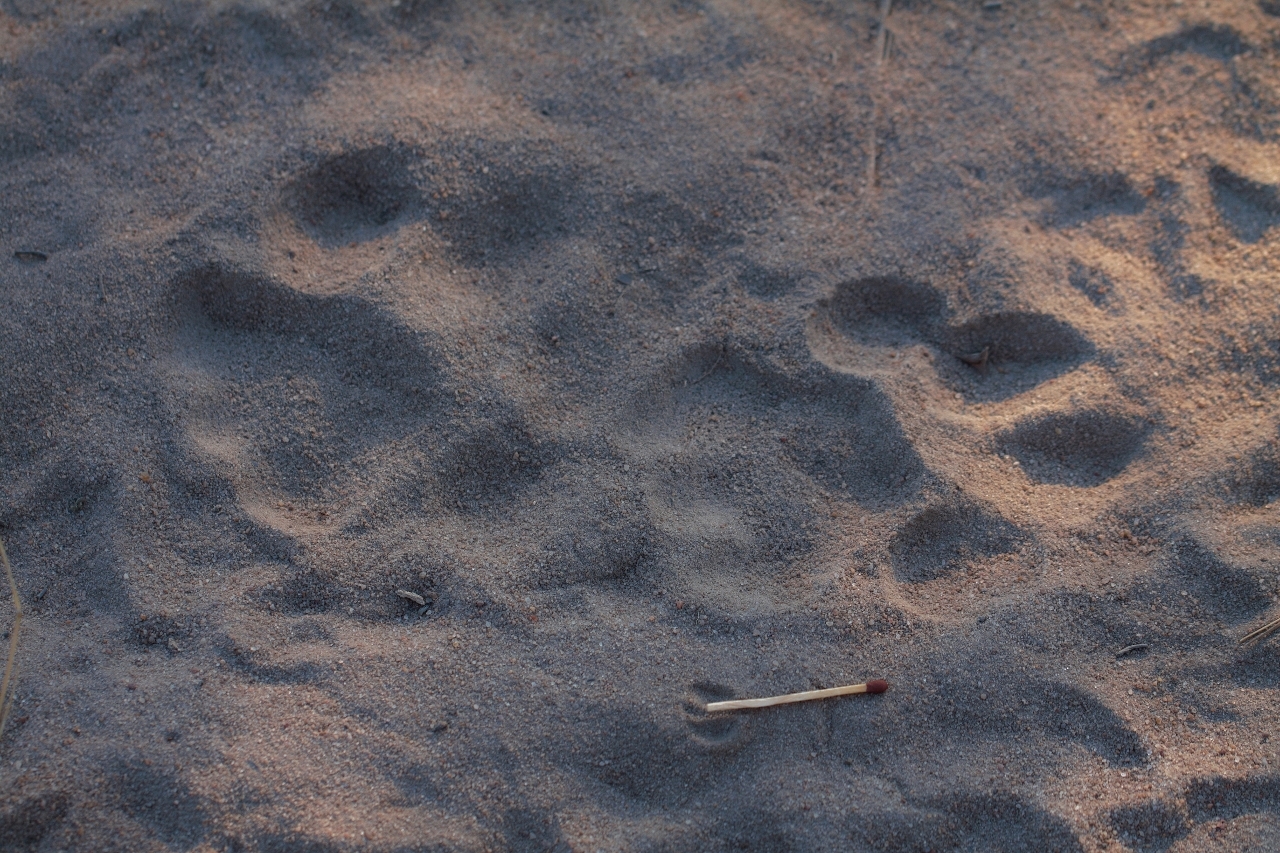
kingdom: Animalia
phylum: Chordata
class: Mammalia
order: Carnivora
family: Felidae
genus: Panthera
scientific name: Panthera leo
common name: Lion
